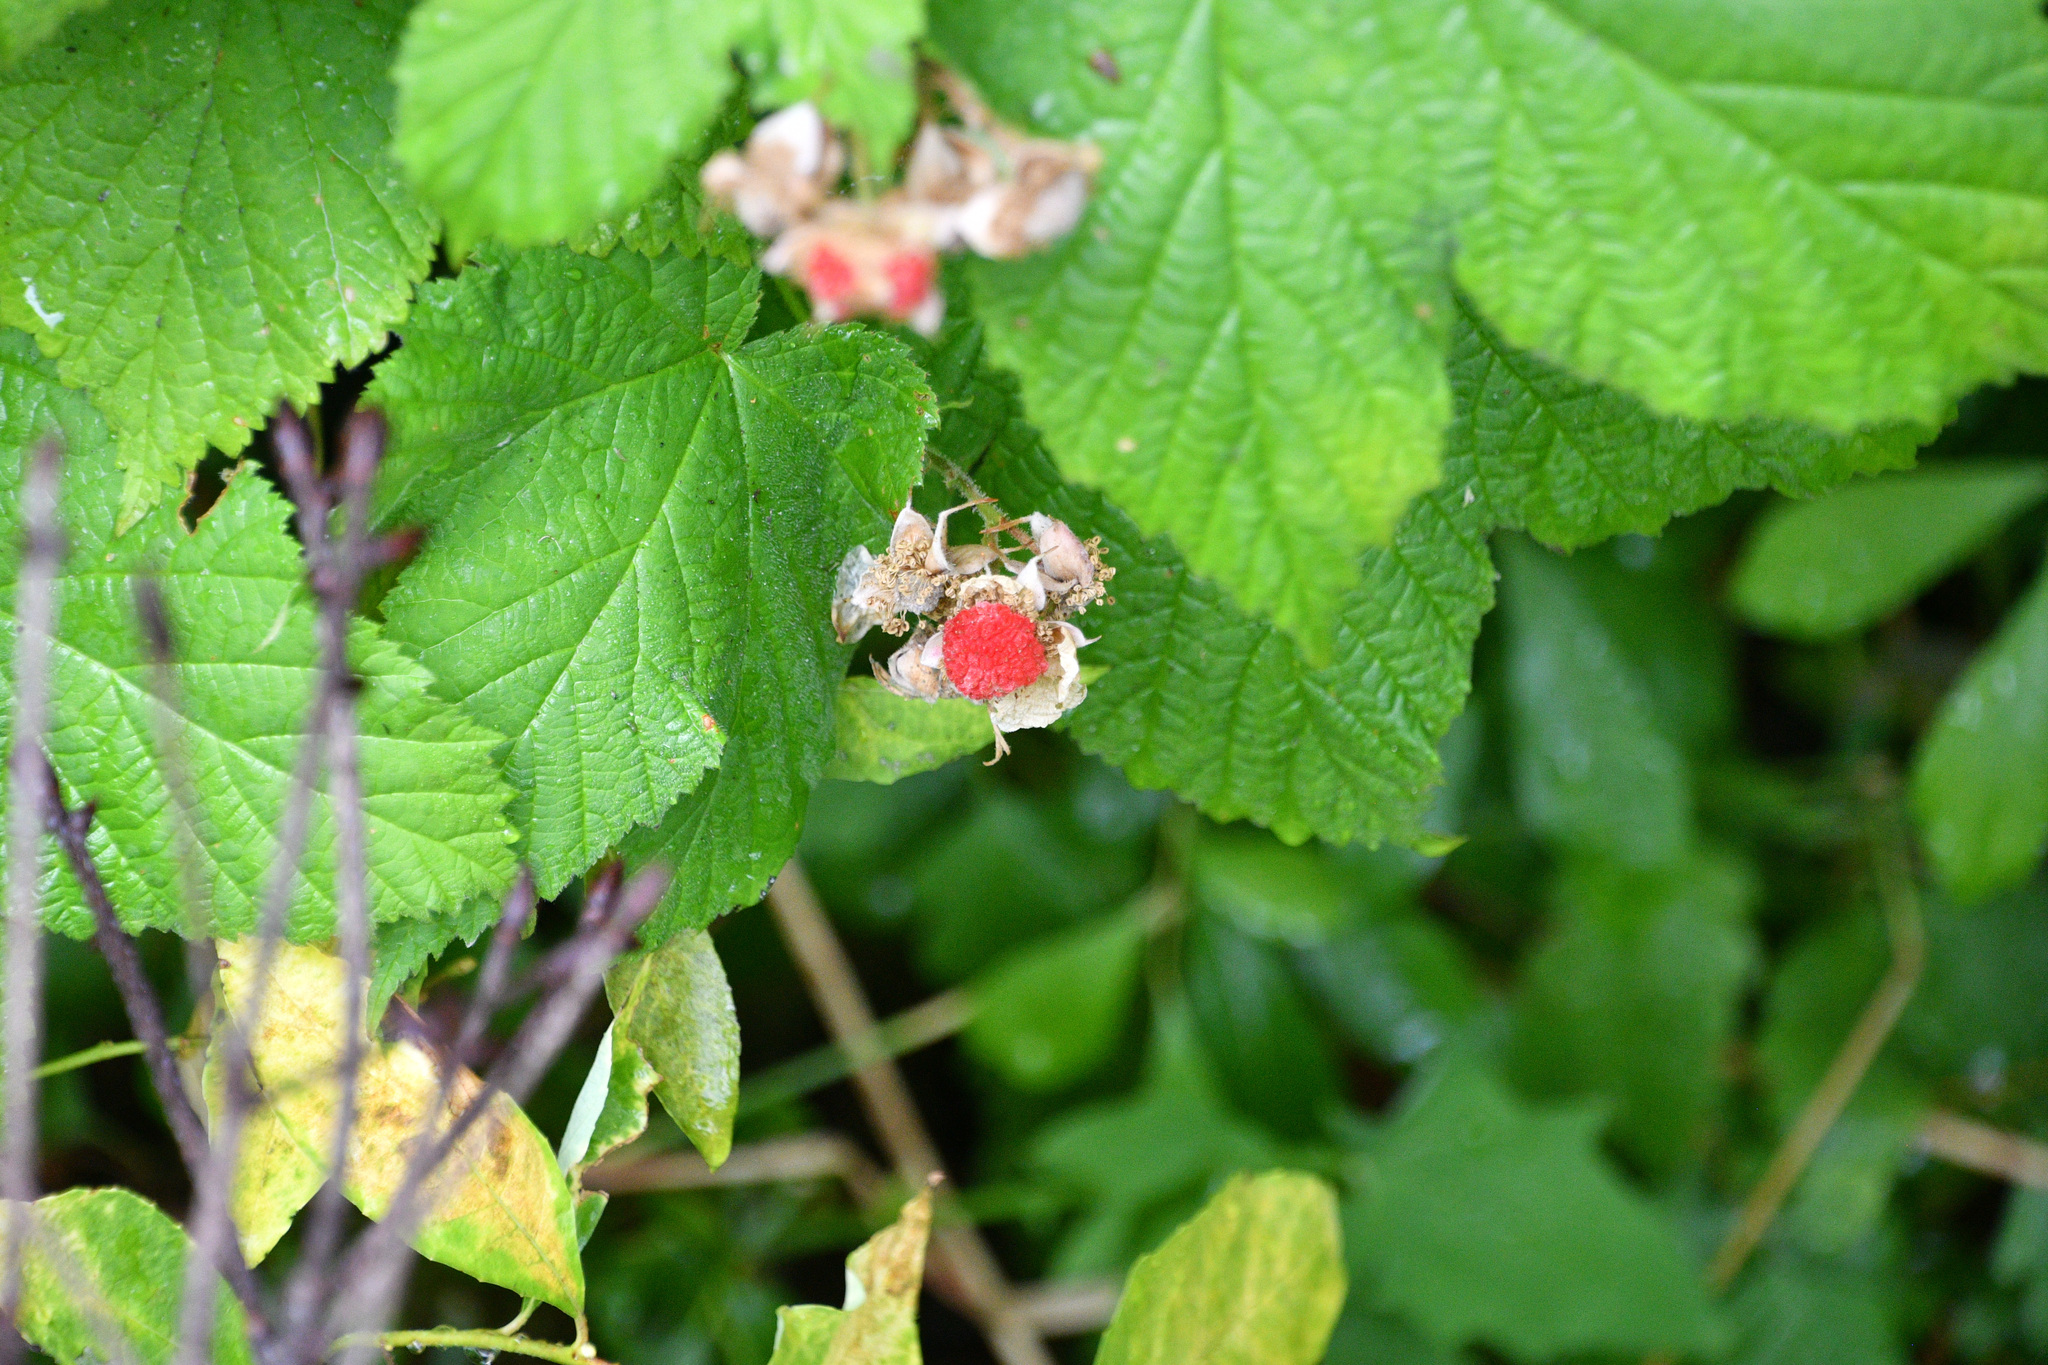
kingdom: Plantae
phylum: Tracheophyta
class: Magnoliopsida
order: Rosales
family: Rosaceae
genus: Rubus
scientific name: Rubus parviflorus
